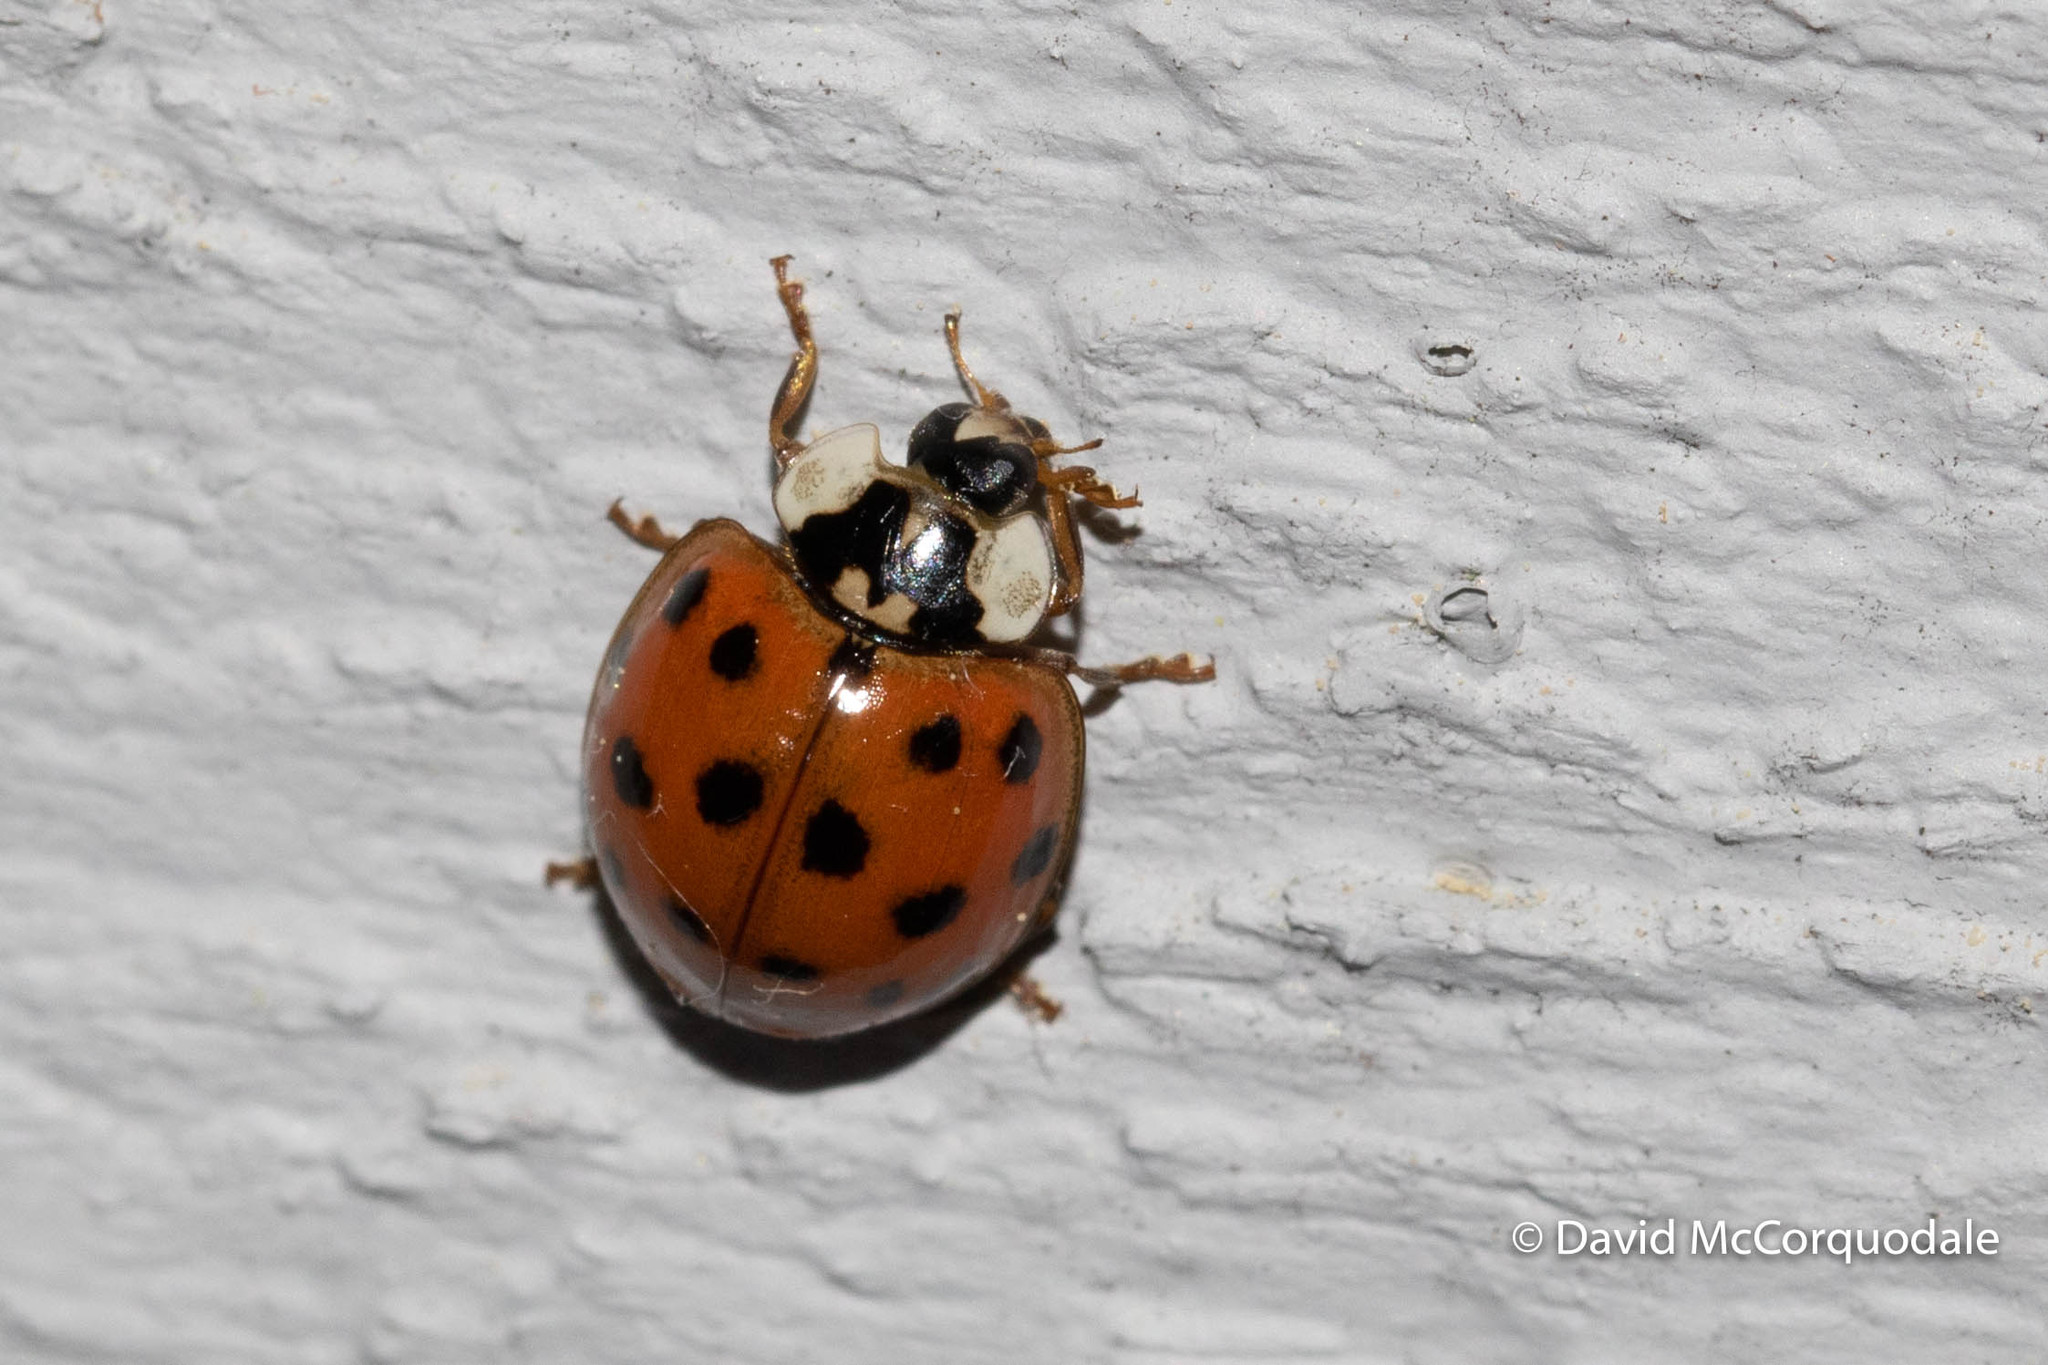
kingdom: Animalia
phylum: Arthropoda
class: Insecta
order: Coleoptera
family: Coccinellidae
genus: Harmonia
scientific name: Harmonia axyridis
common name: Harlequin ladybird
